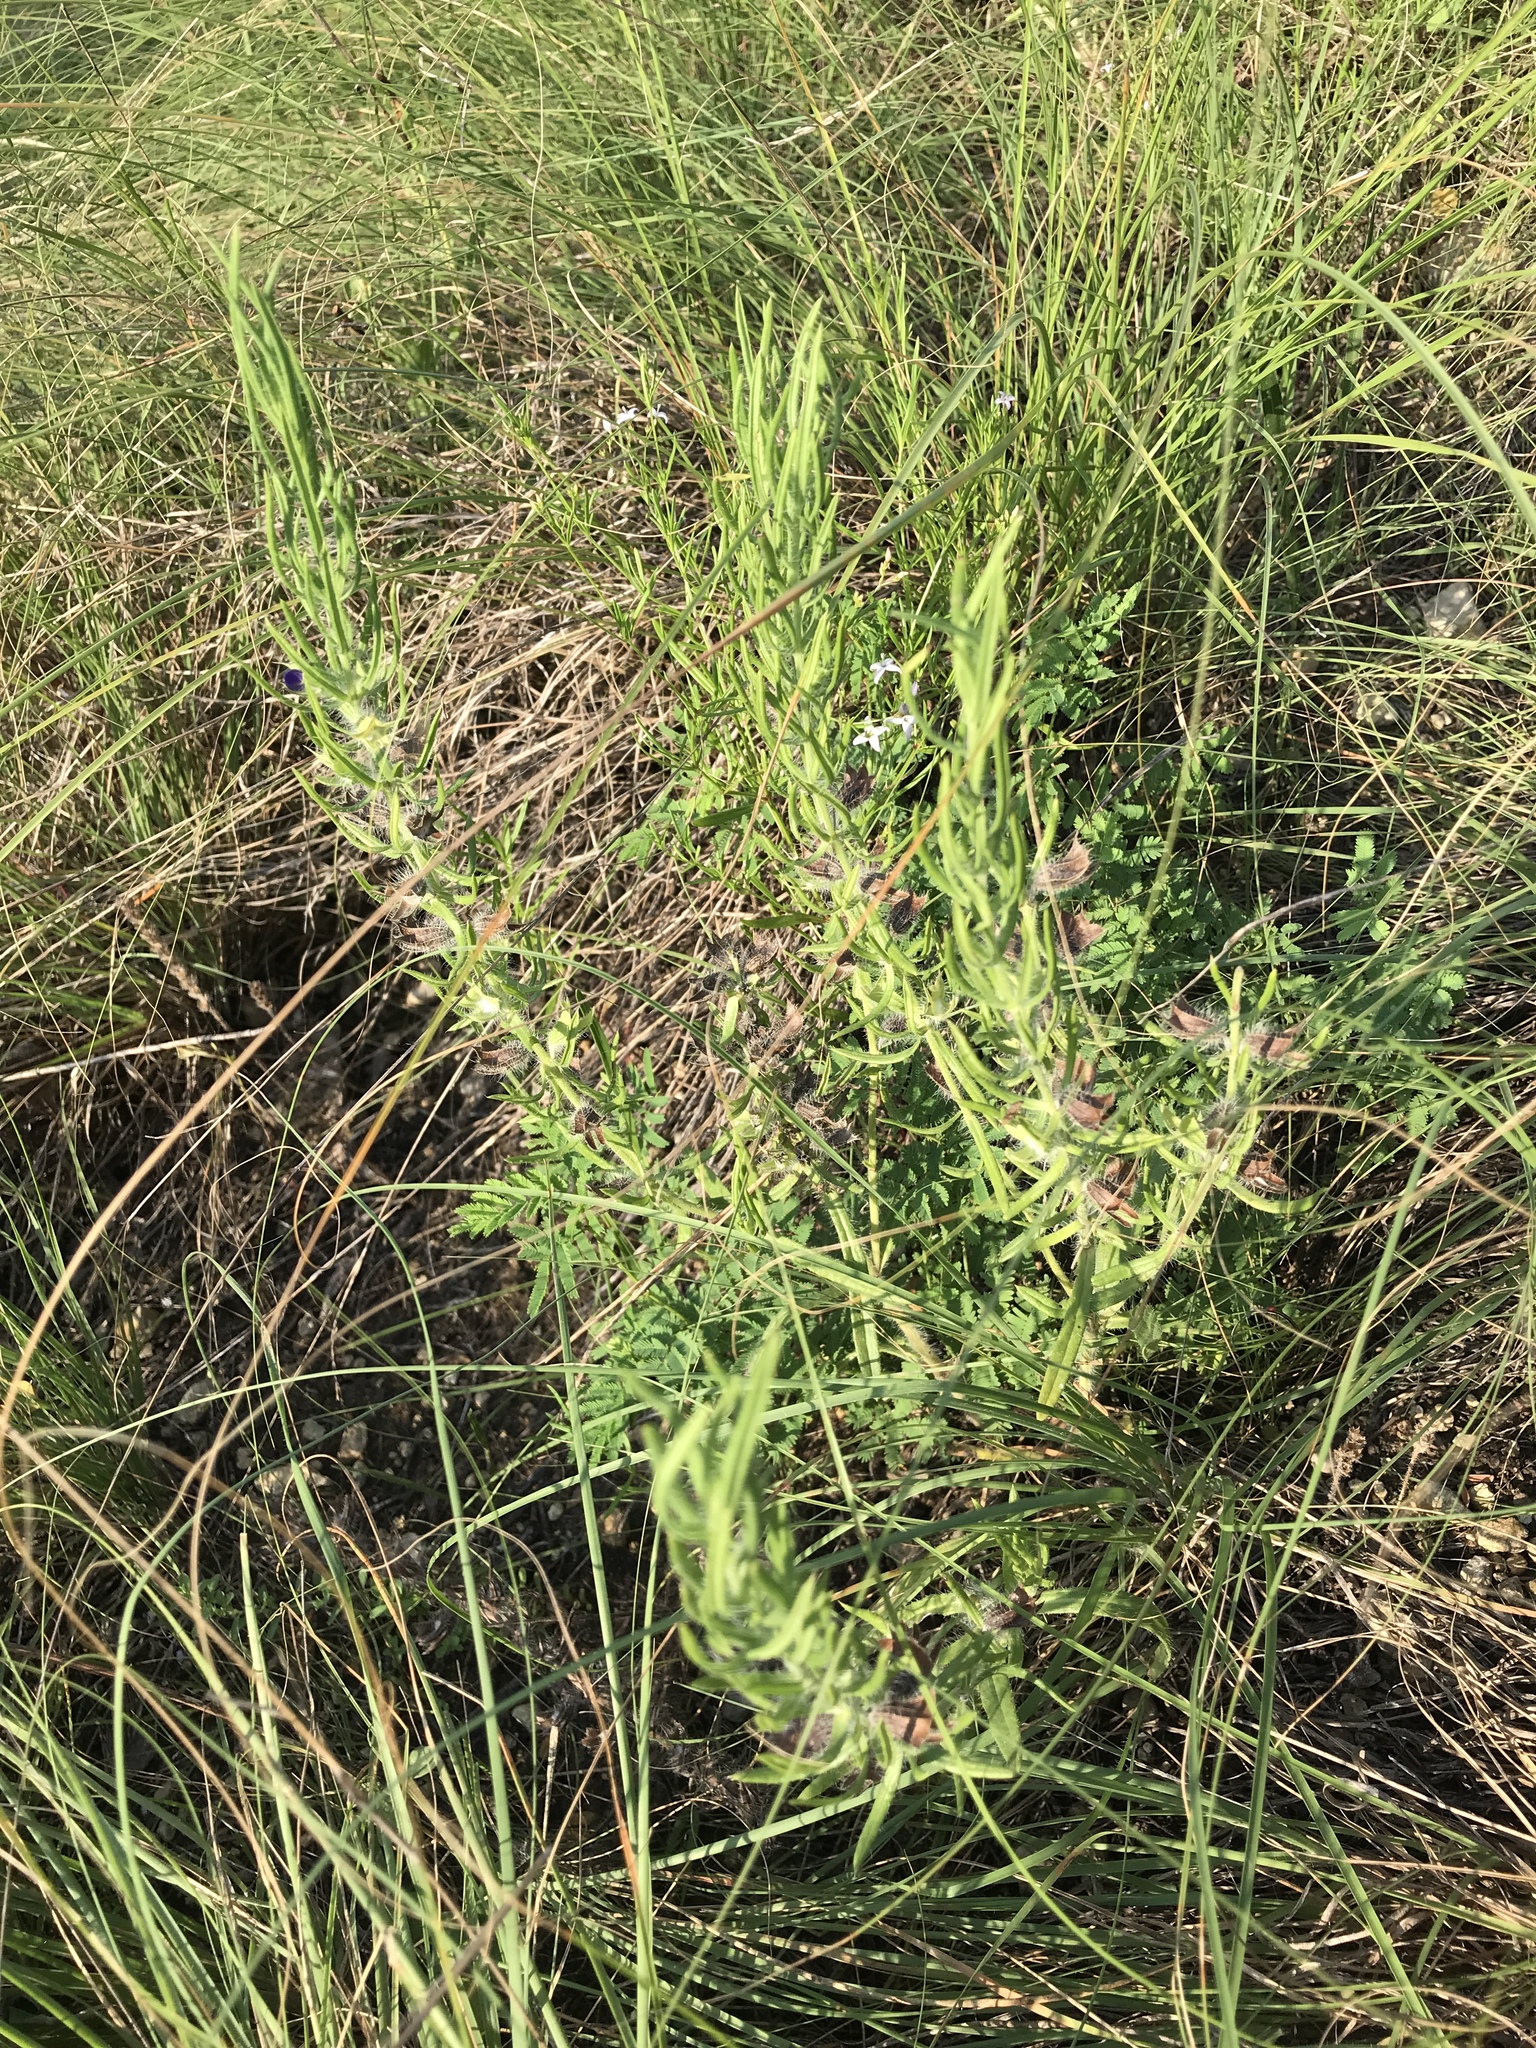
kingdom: Plantae
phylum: Tracheophyta
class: Magnoliopsida
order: Lamiales
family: Lamiaceae
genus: Salvia
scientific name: Salvia texana
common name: Texas sage
